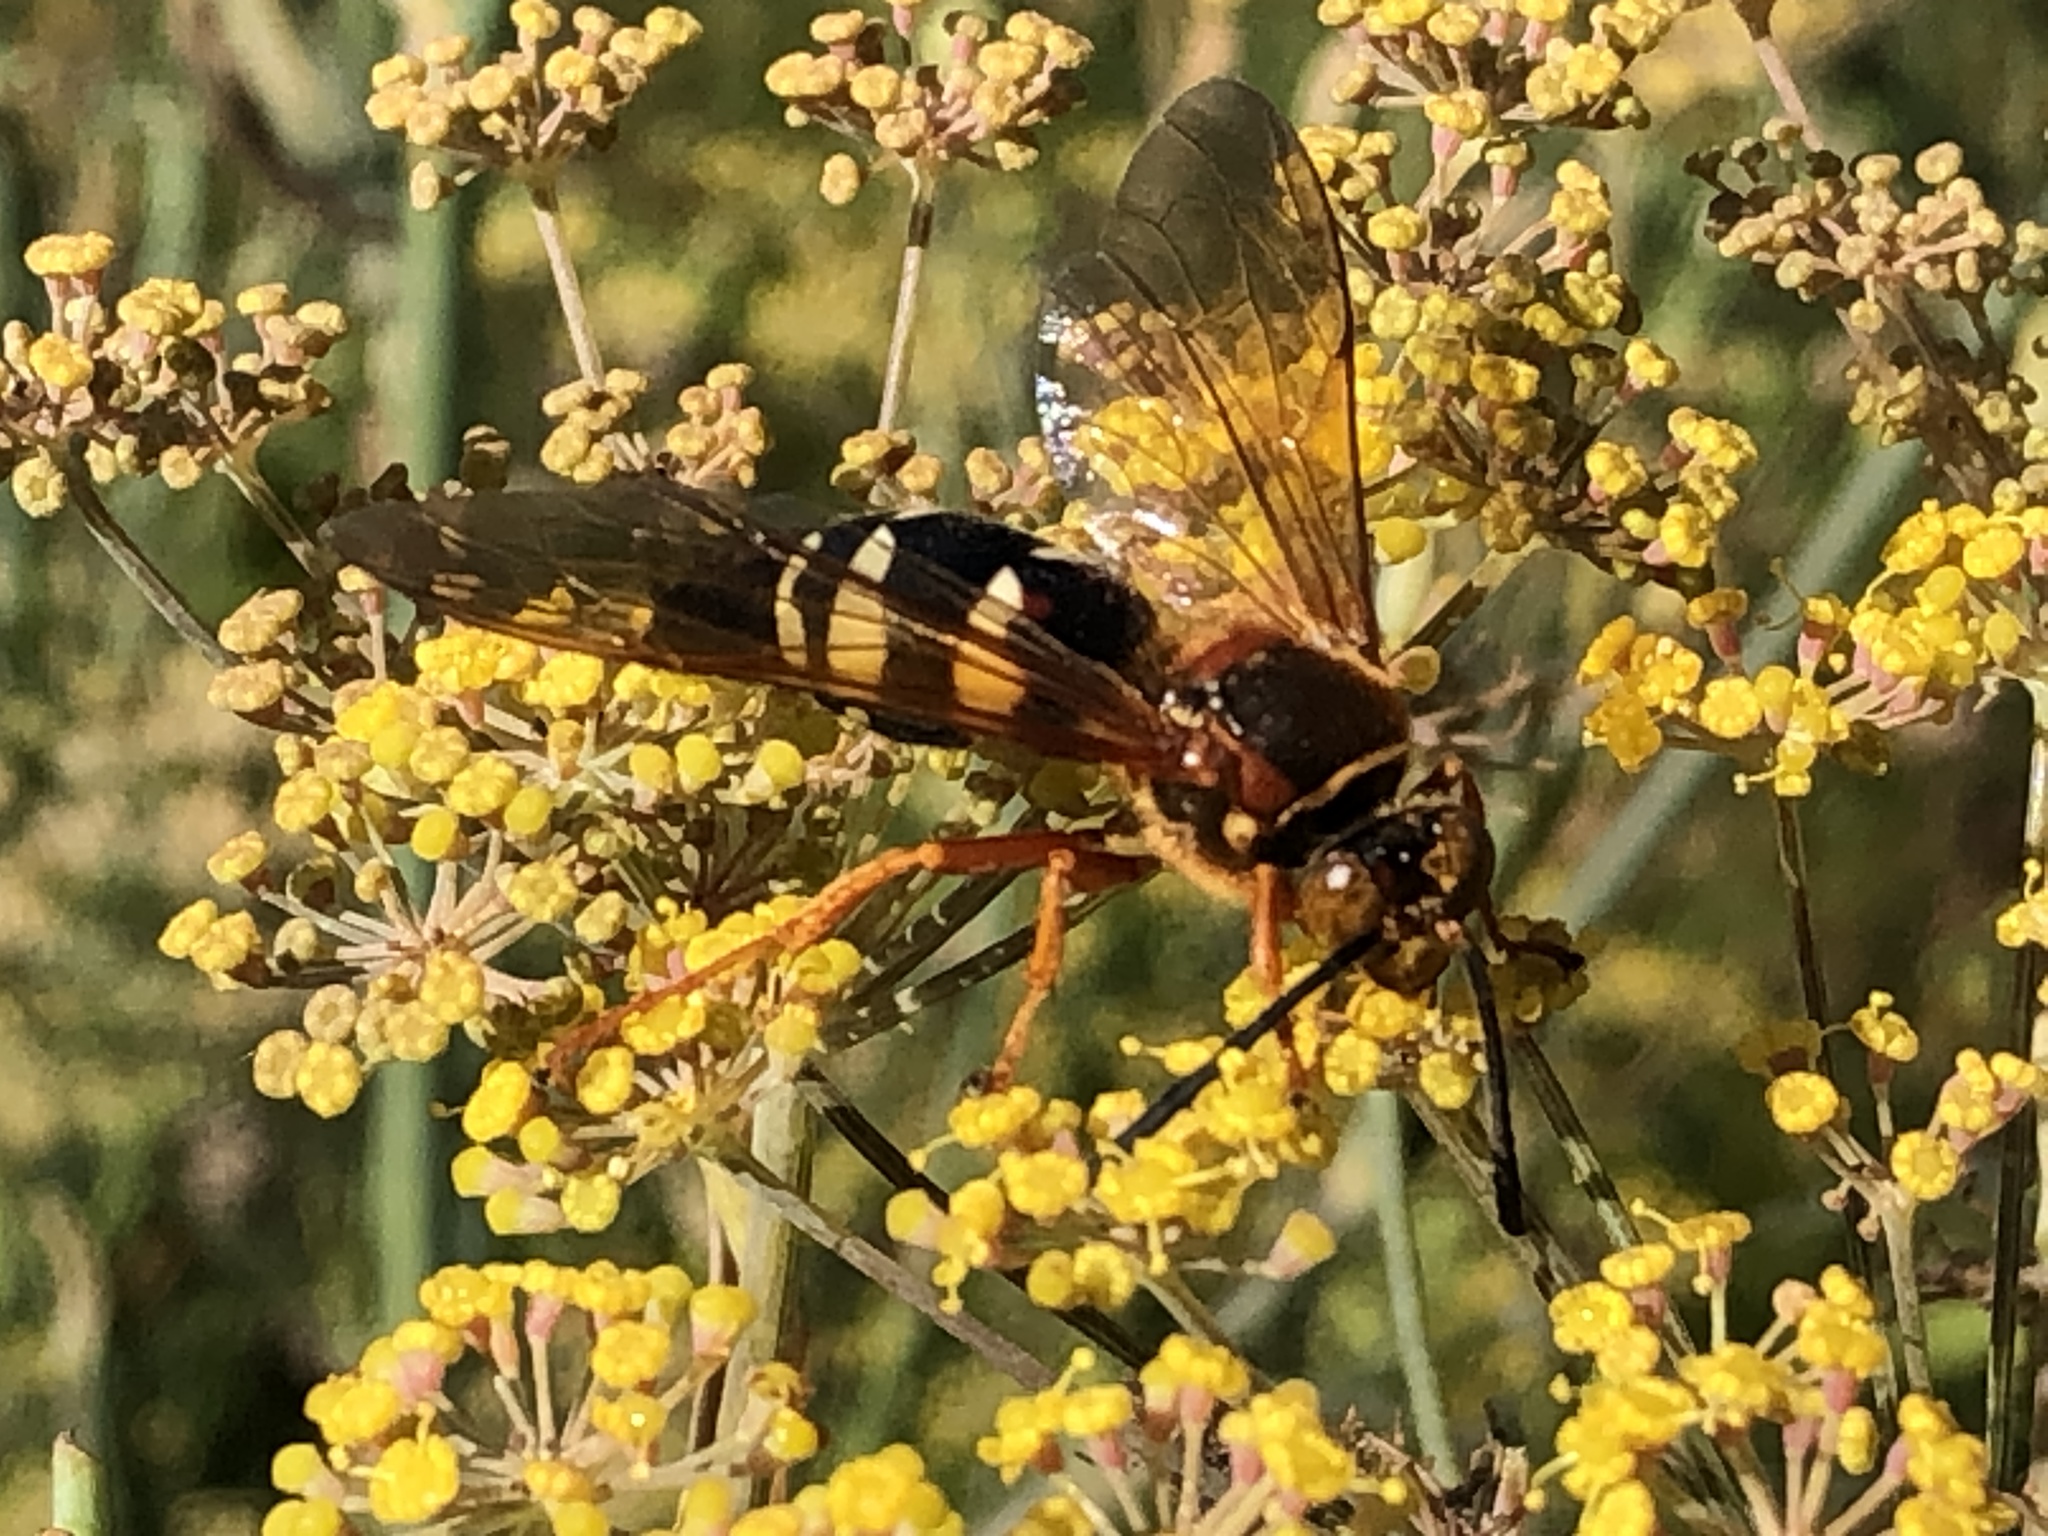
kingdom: Animalia
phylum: Arthropoda
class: Insecta
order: Hymenoptera
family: Crabronidae
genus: Sphecius
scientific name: Sphecius speciosus
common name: Cicada killer
